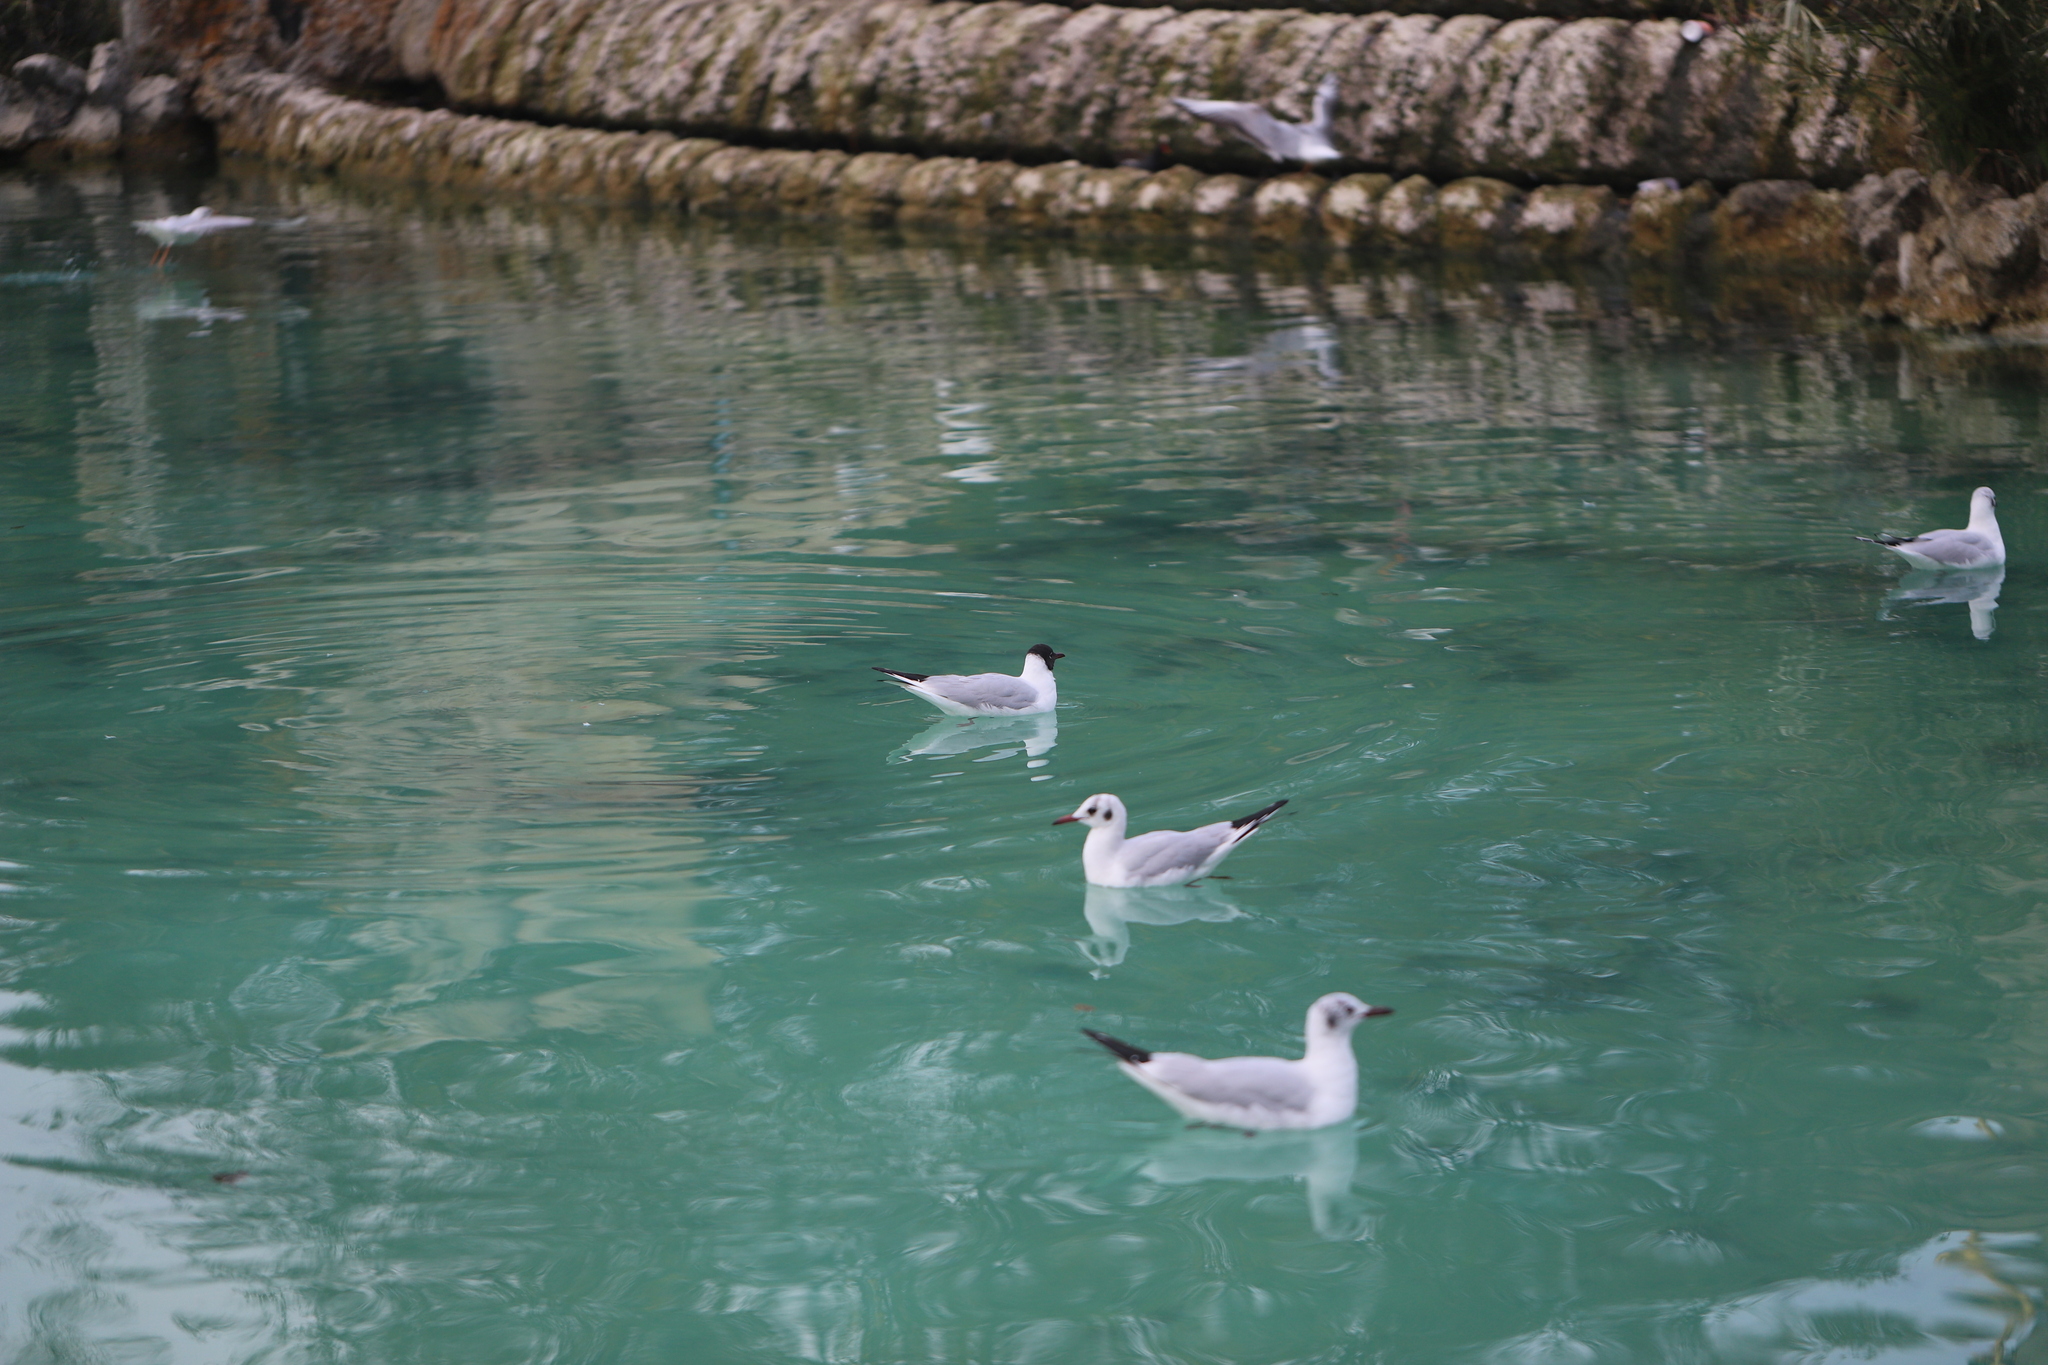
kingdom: Animalia
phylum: Chordata
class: Aves
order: Charadriiformes
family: Laridae
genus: Chroicocephalus
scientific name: Chroicocephalus ridibundus
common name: Black-headed gull
